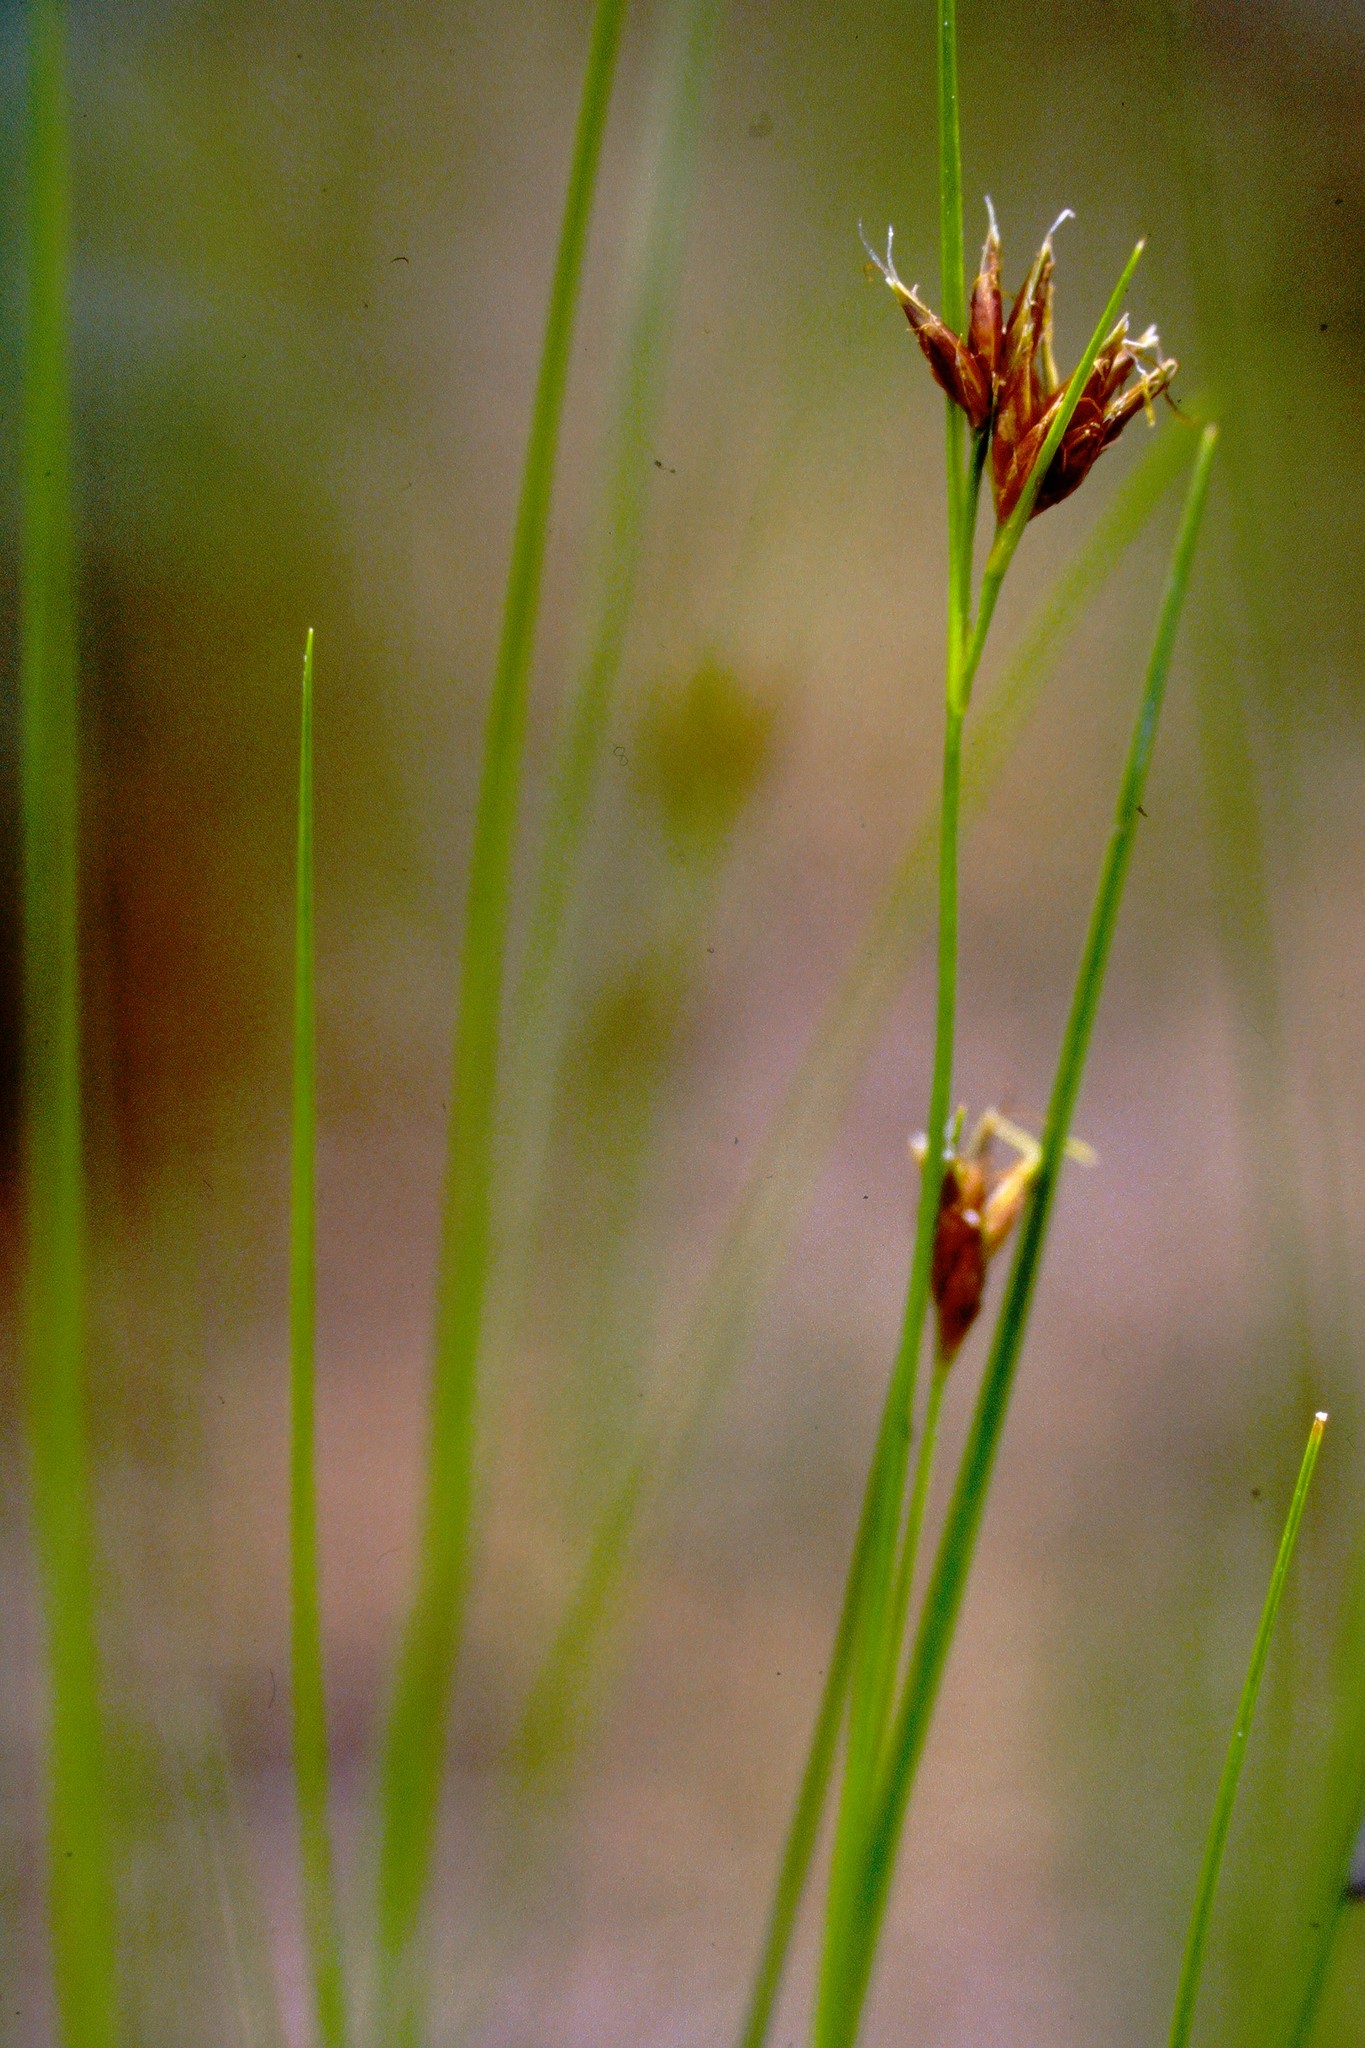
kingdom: Plantae
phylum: Tracheophyta
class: Liliopsida
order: Poales
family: Cyperaceae
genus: Rhynchospora
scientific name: Rhynchospora fusca
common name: Brown beak-sedge
